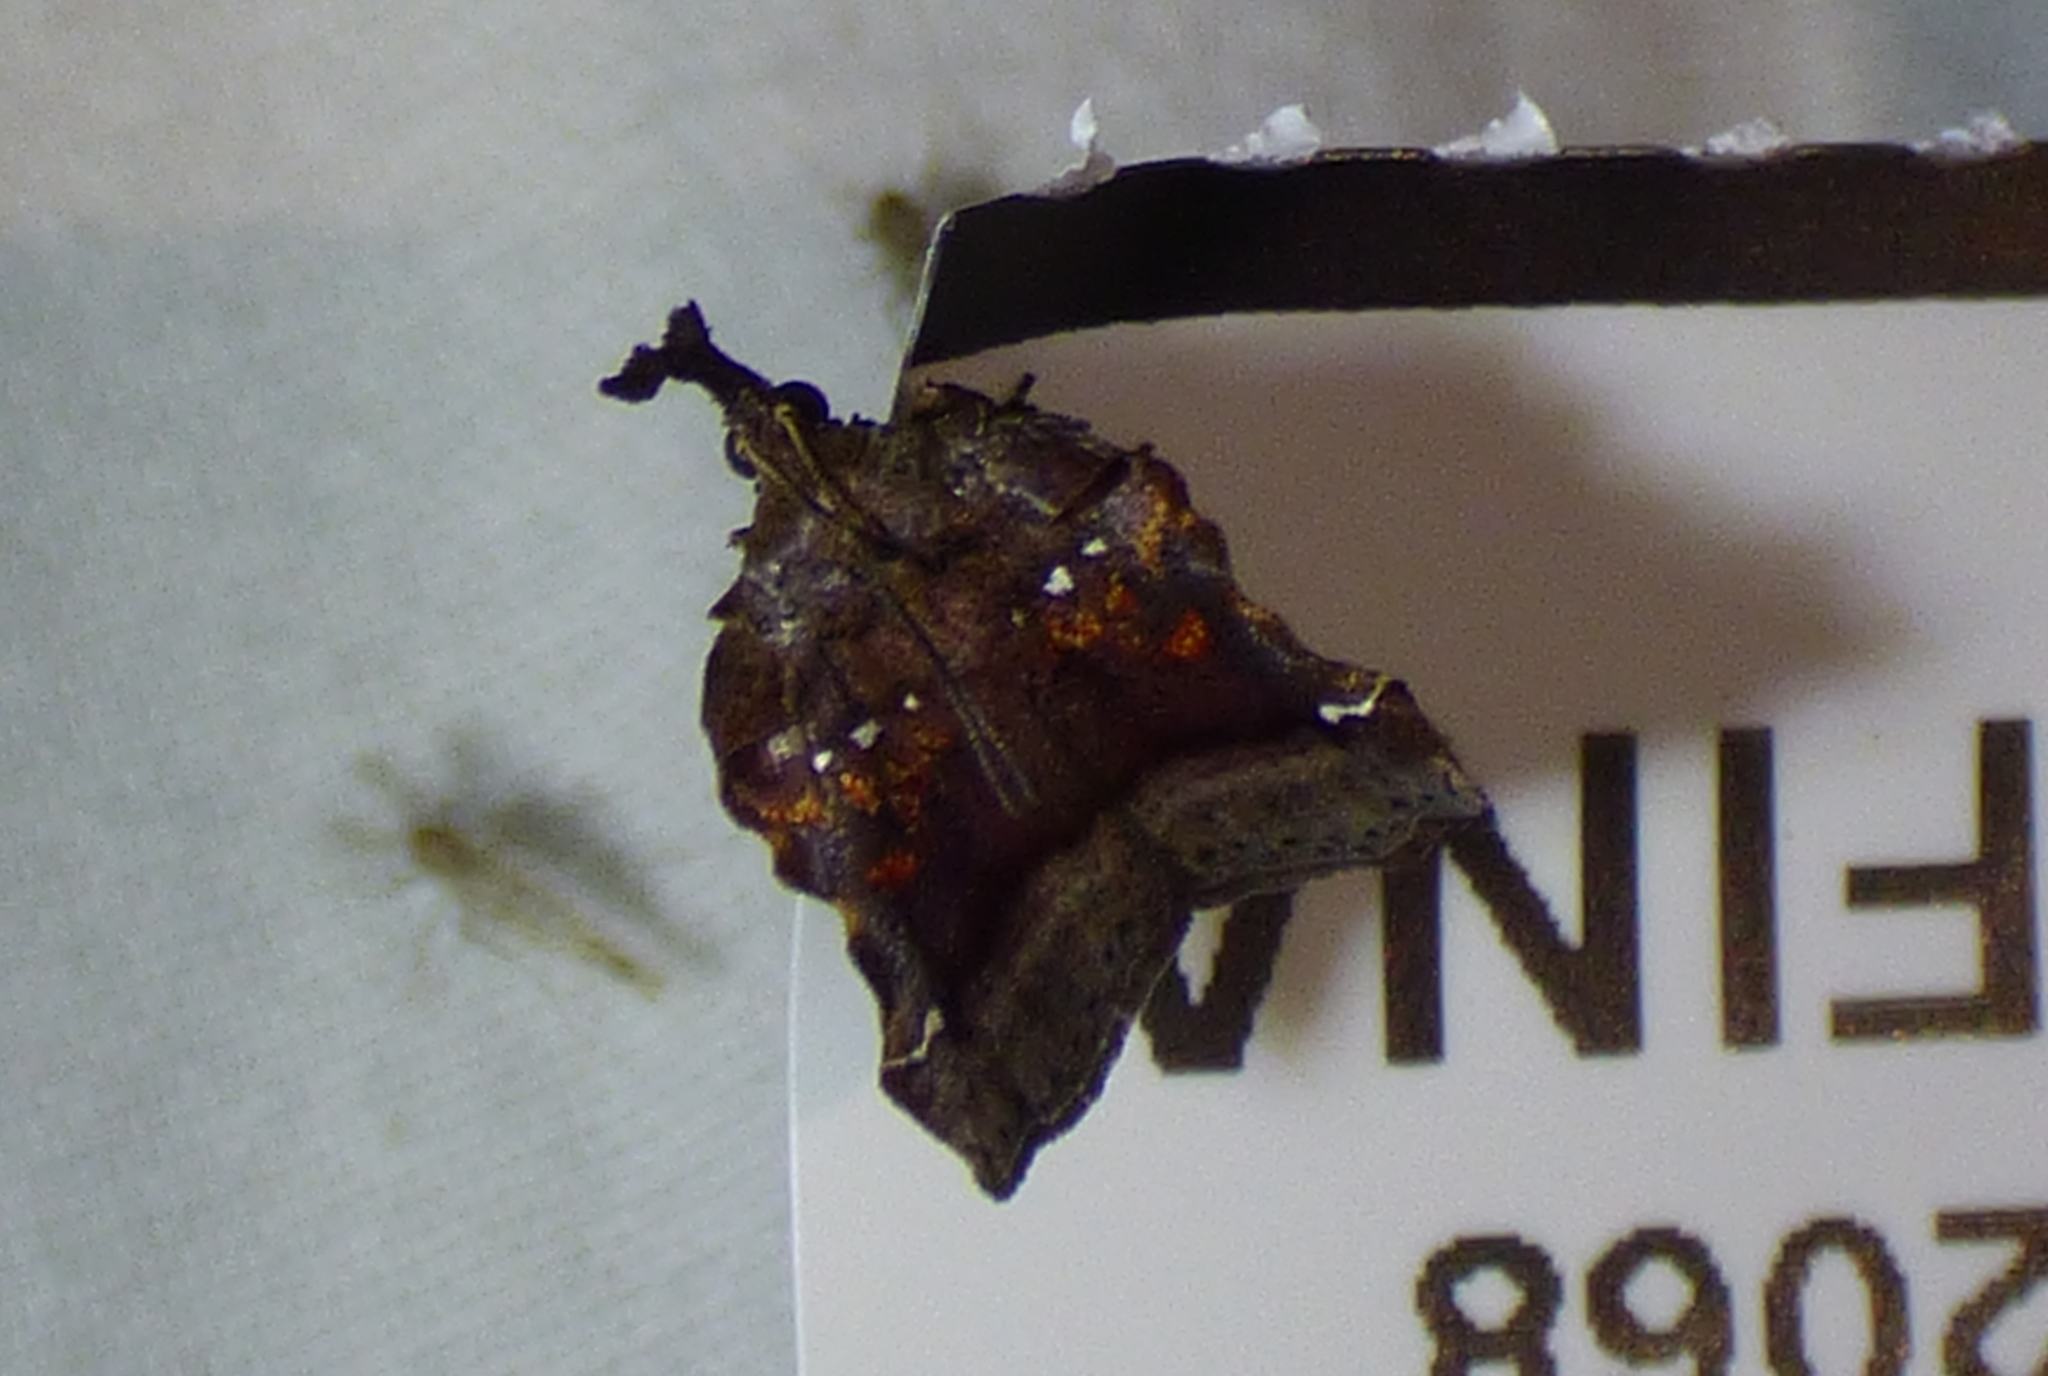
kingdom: Animalia
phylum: Arthropoda
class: Insecta
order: Lepidoptera
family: Pyralidae
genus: Clydonopteron
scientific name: Clydonopteron sacculana
